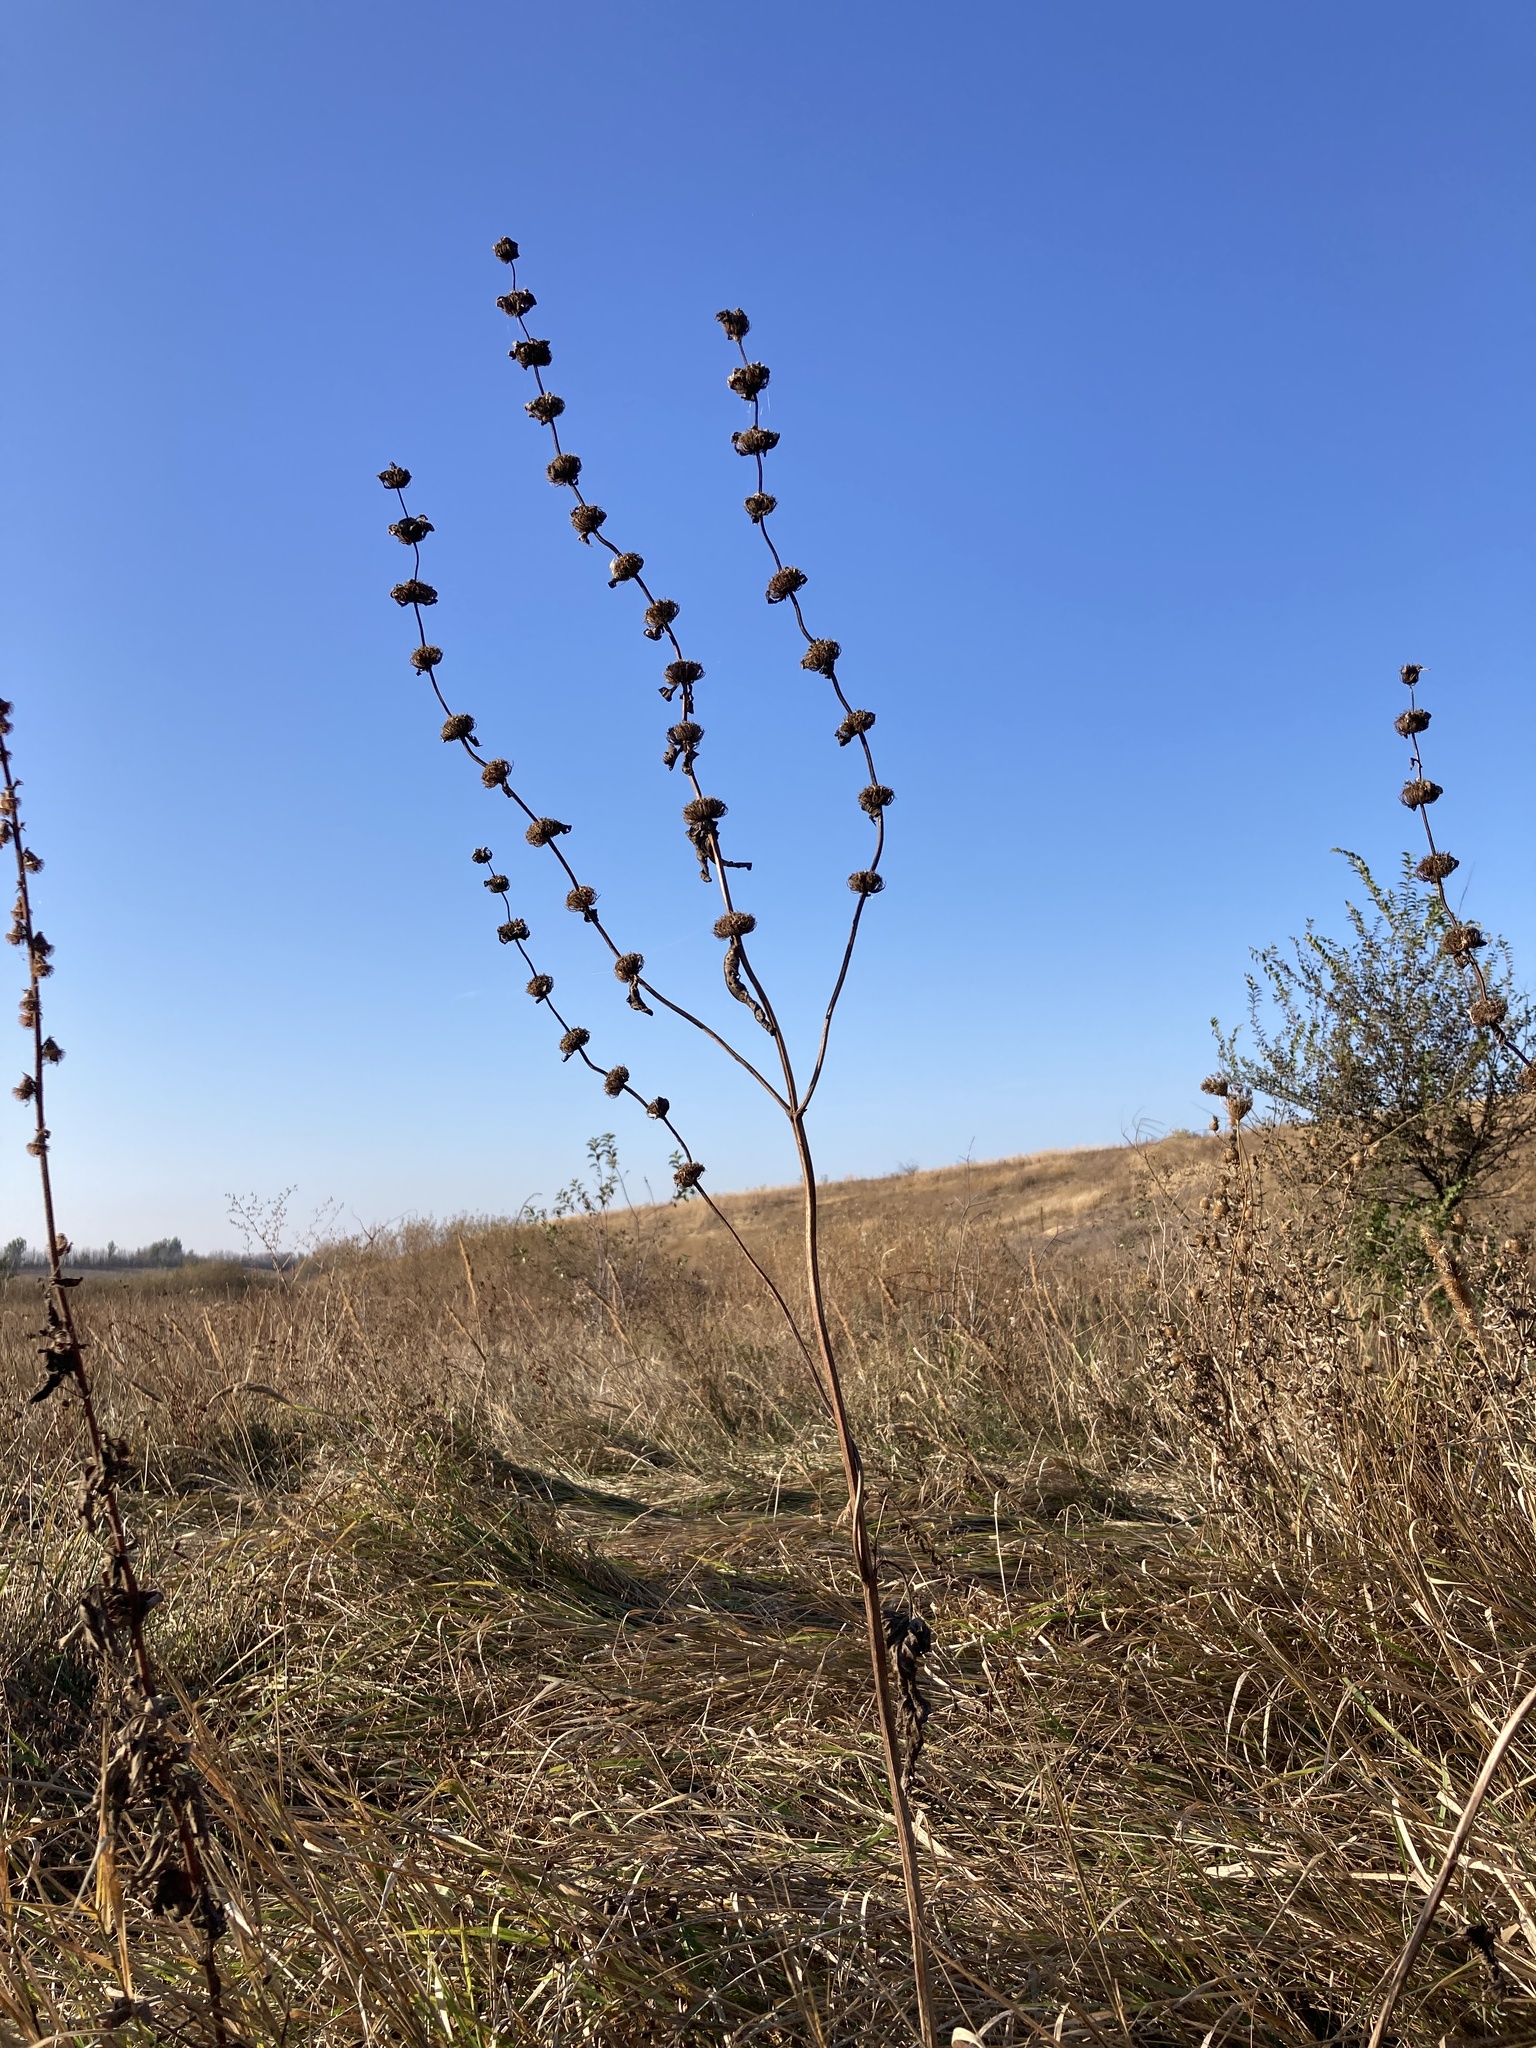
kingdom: Plantae
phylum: Tracheophyta
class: Magnoliopsida
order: Lamiales
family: Lamiaceae
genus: Phlomoides
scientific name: Phlomoides tuberosa
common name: Tuberous jerusalem sage
